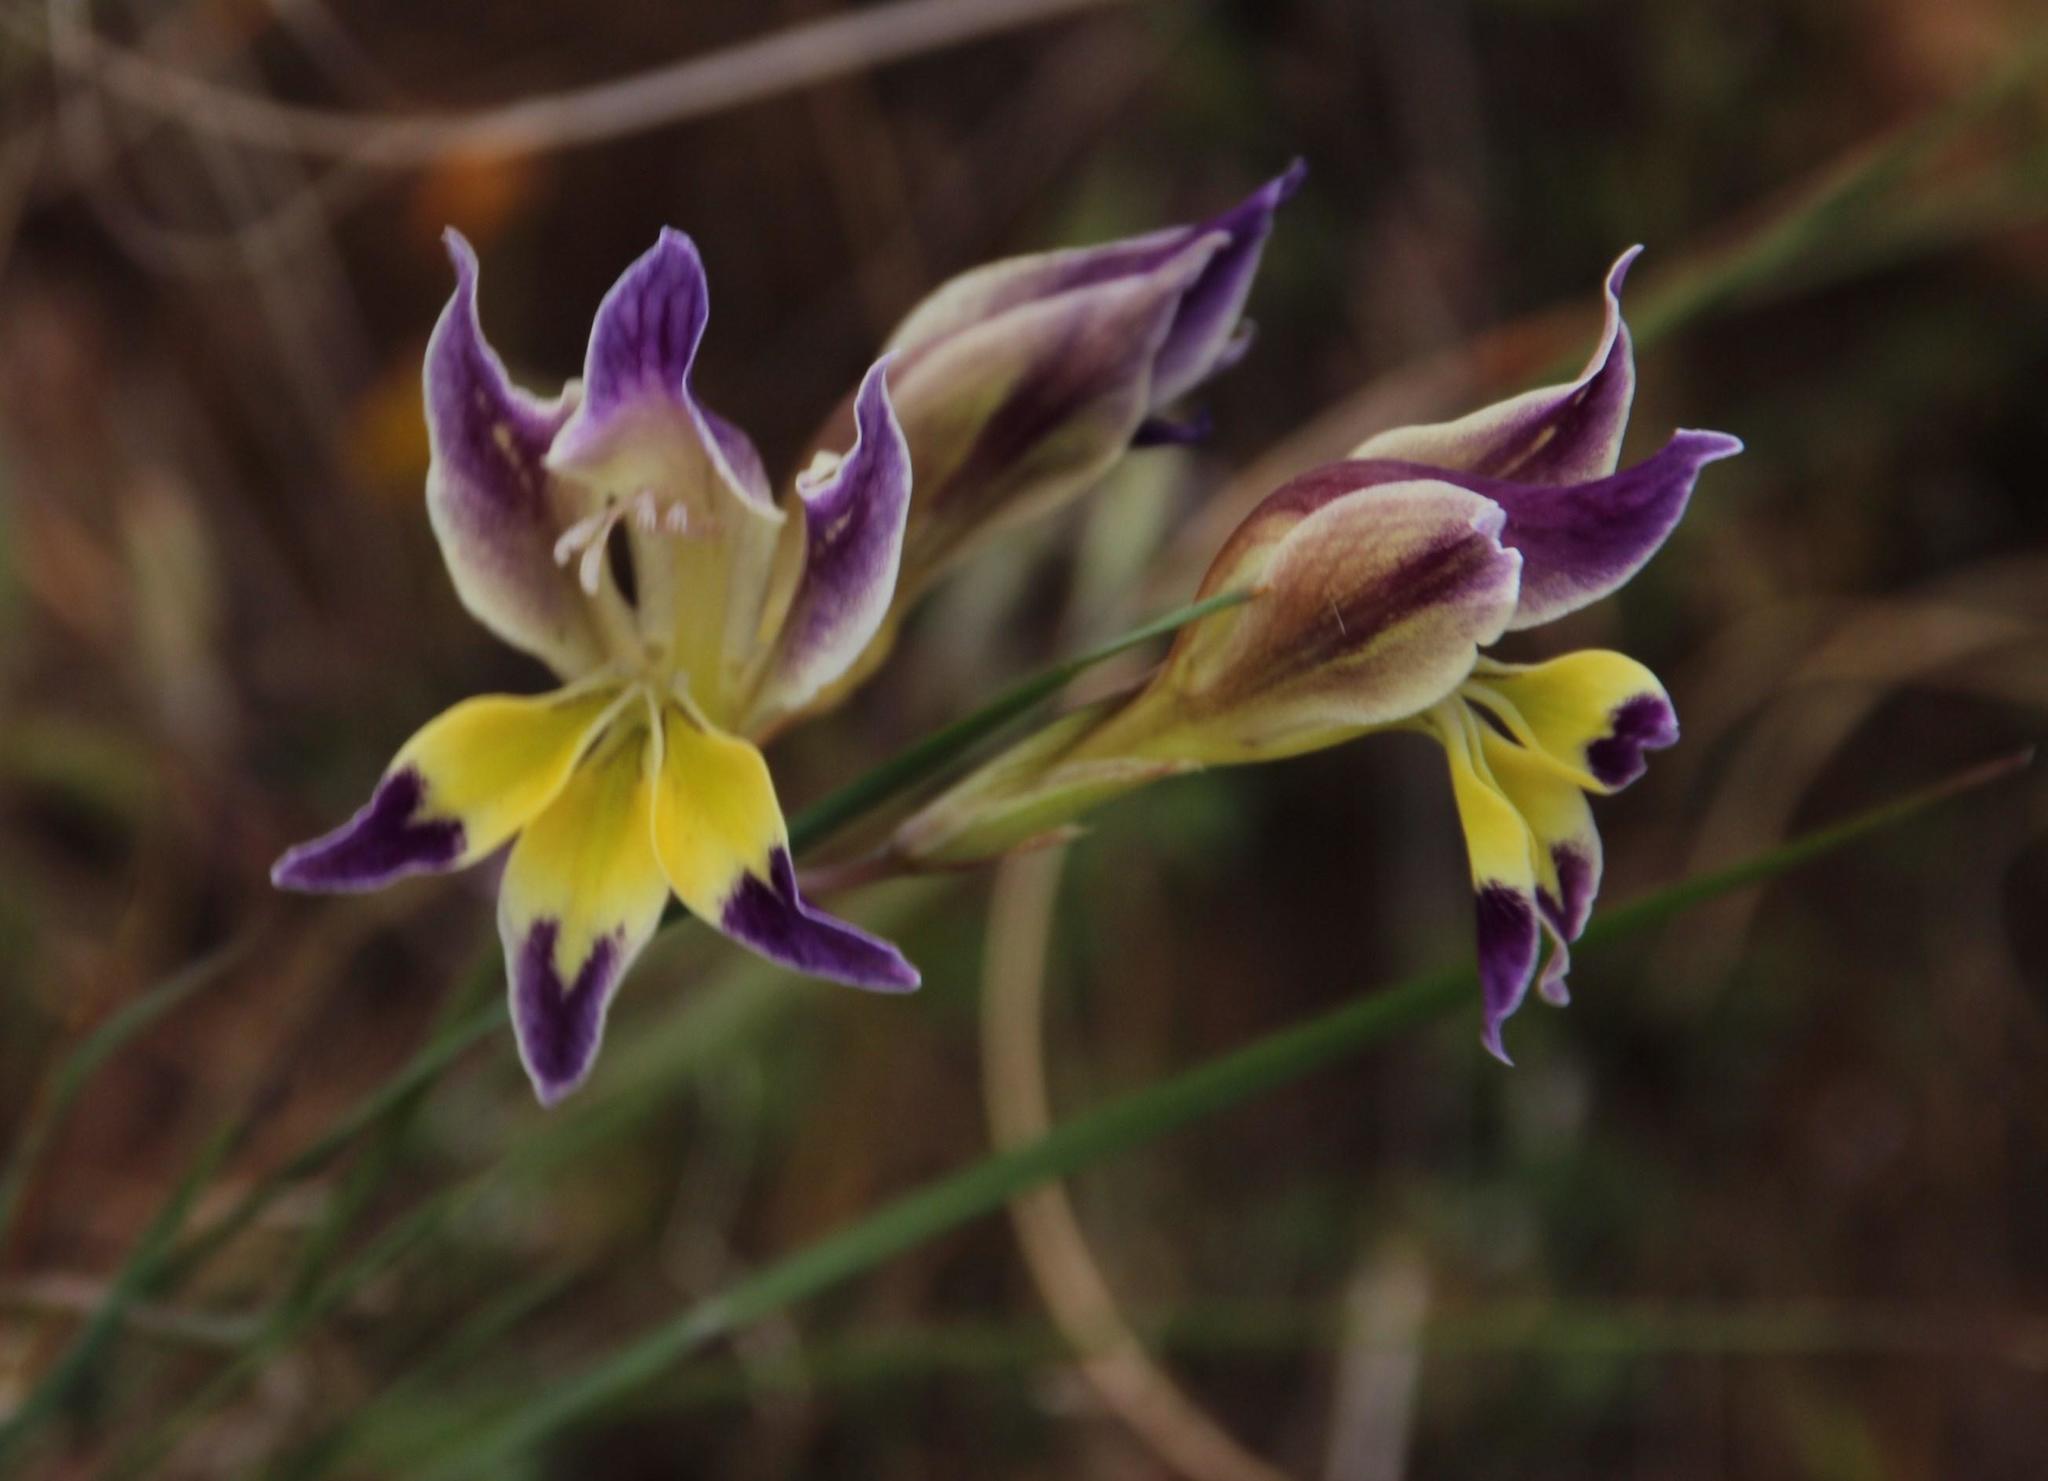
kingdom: Plantae
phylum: Tracheophyta
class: Liliopsida
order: Asparagales
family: Iridaceae
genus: Gladiolus
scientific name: Gladiolus venustus
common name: Purple kalkoentjie
